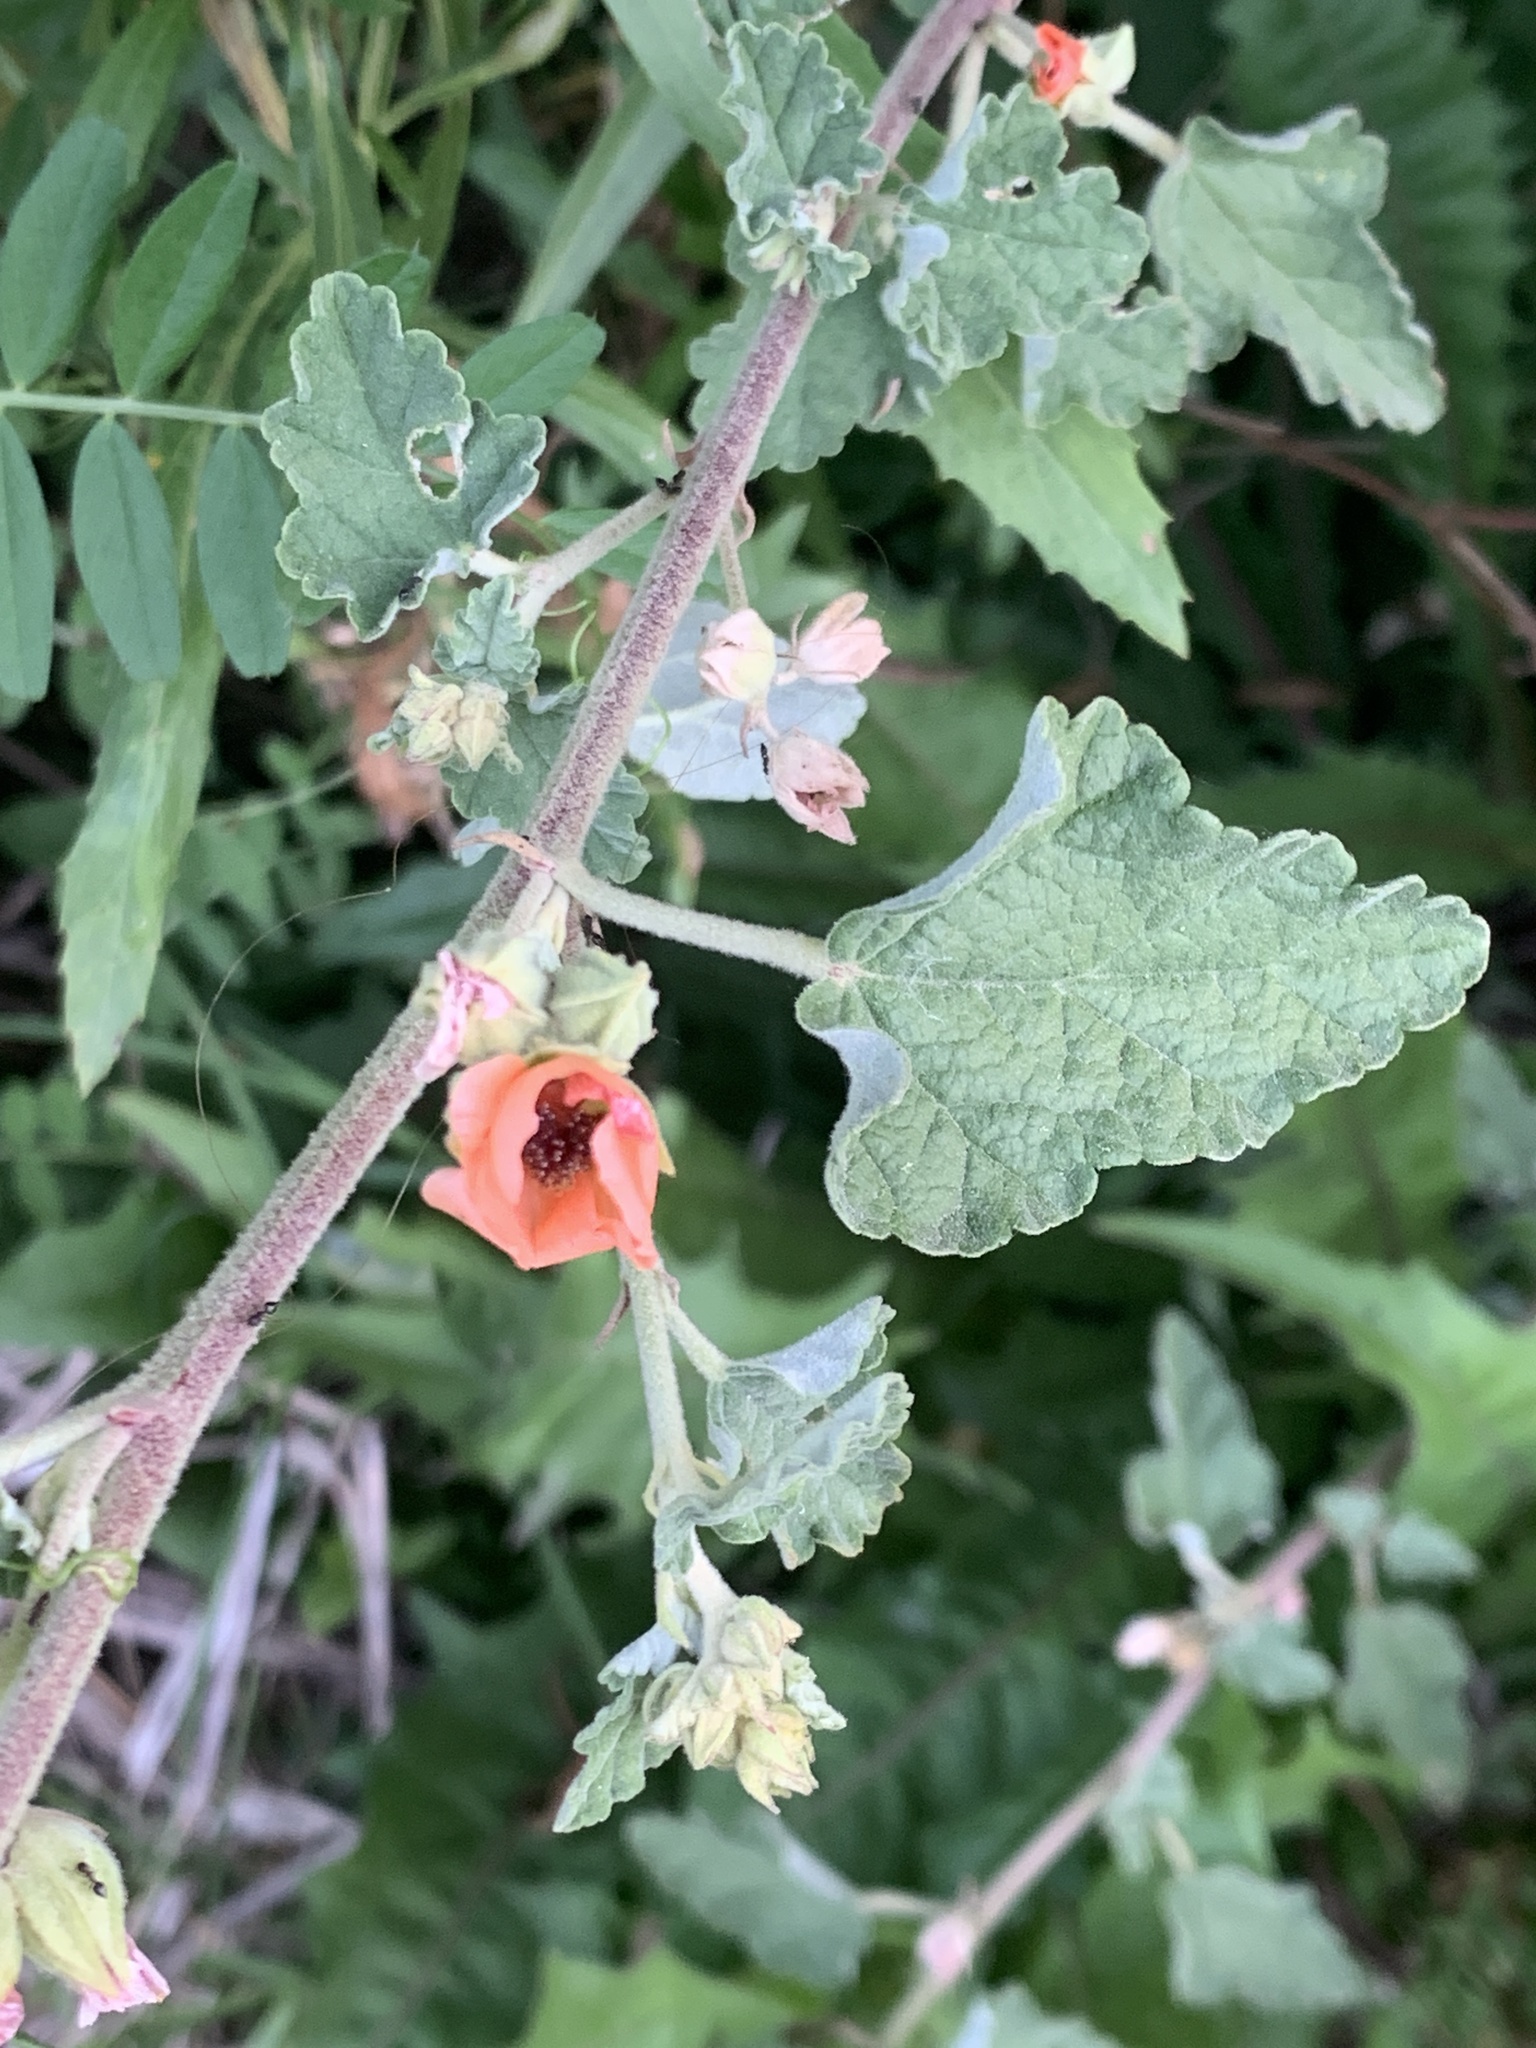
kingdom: Plantae
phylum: Tracheophyta
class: Magnoliopsida
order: Malvales
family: Malvaceae
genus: Sphaeralcea
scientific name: Sphaeralcea bonariensis
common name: Latin globemallow
